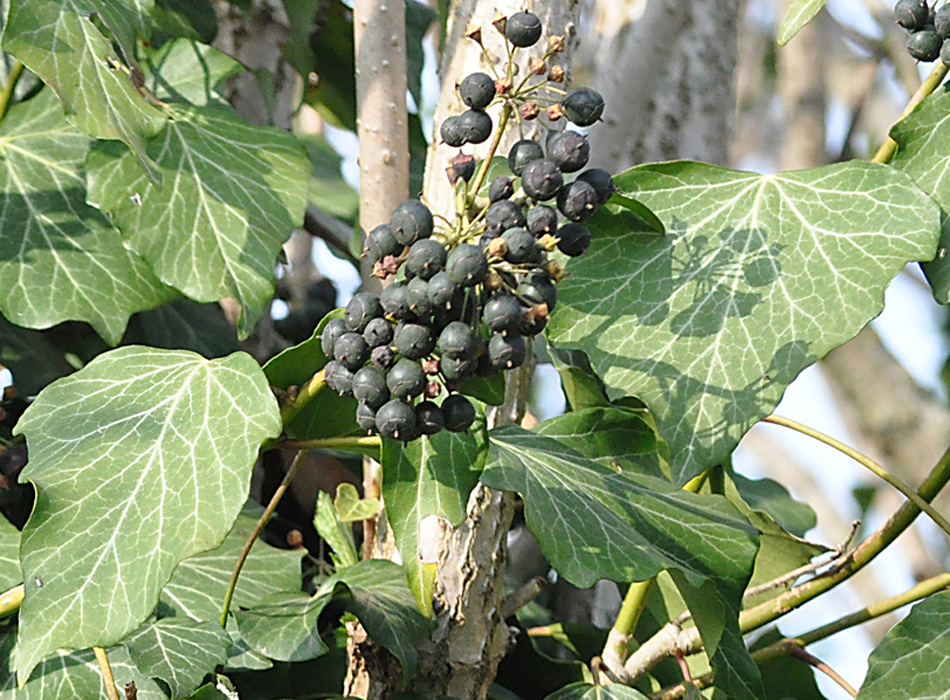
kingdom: Plantae
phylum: Tracheophyta
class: Magnoliopsida
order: Apiales
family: Araliaceae
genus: Hedera
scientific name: Hedera helix
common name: Ivy
